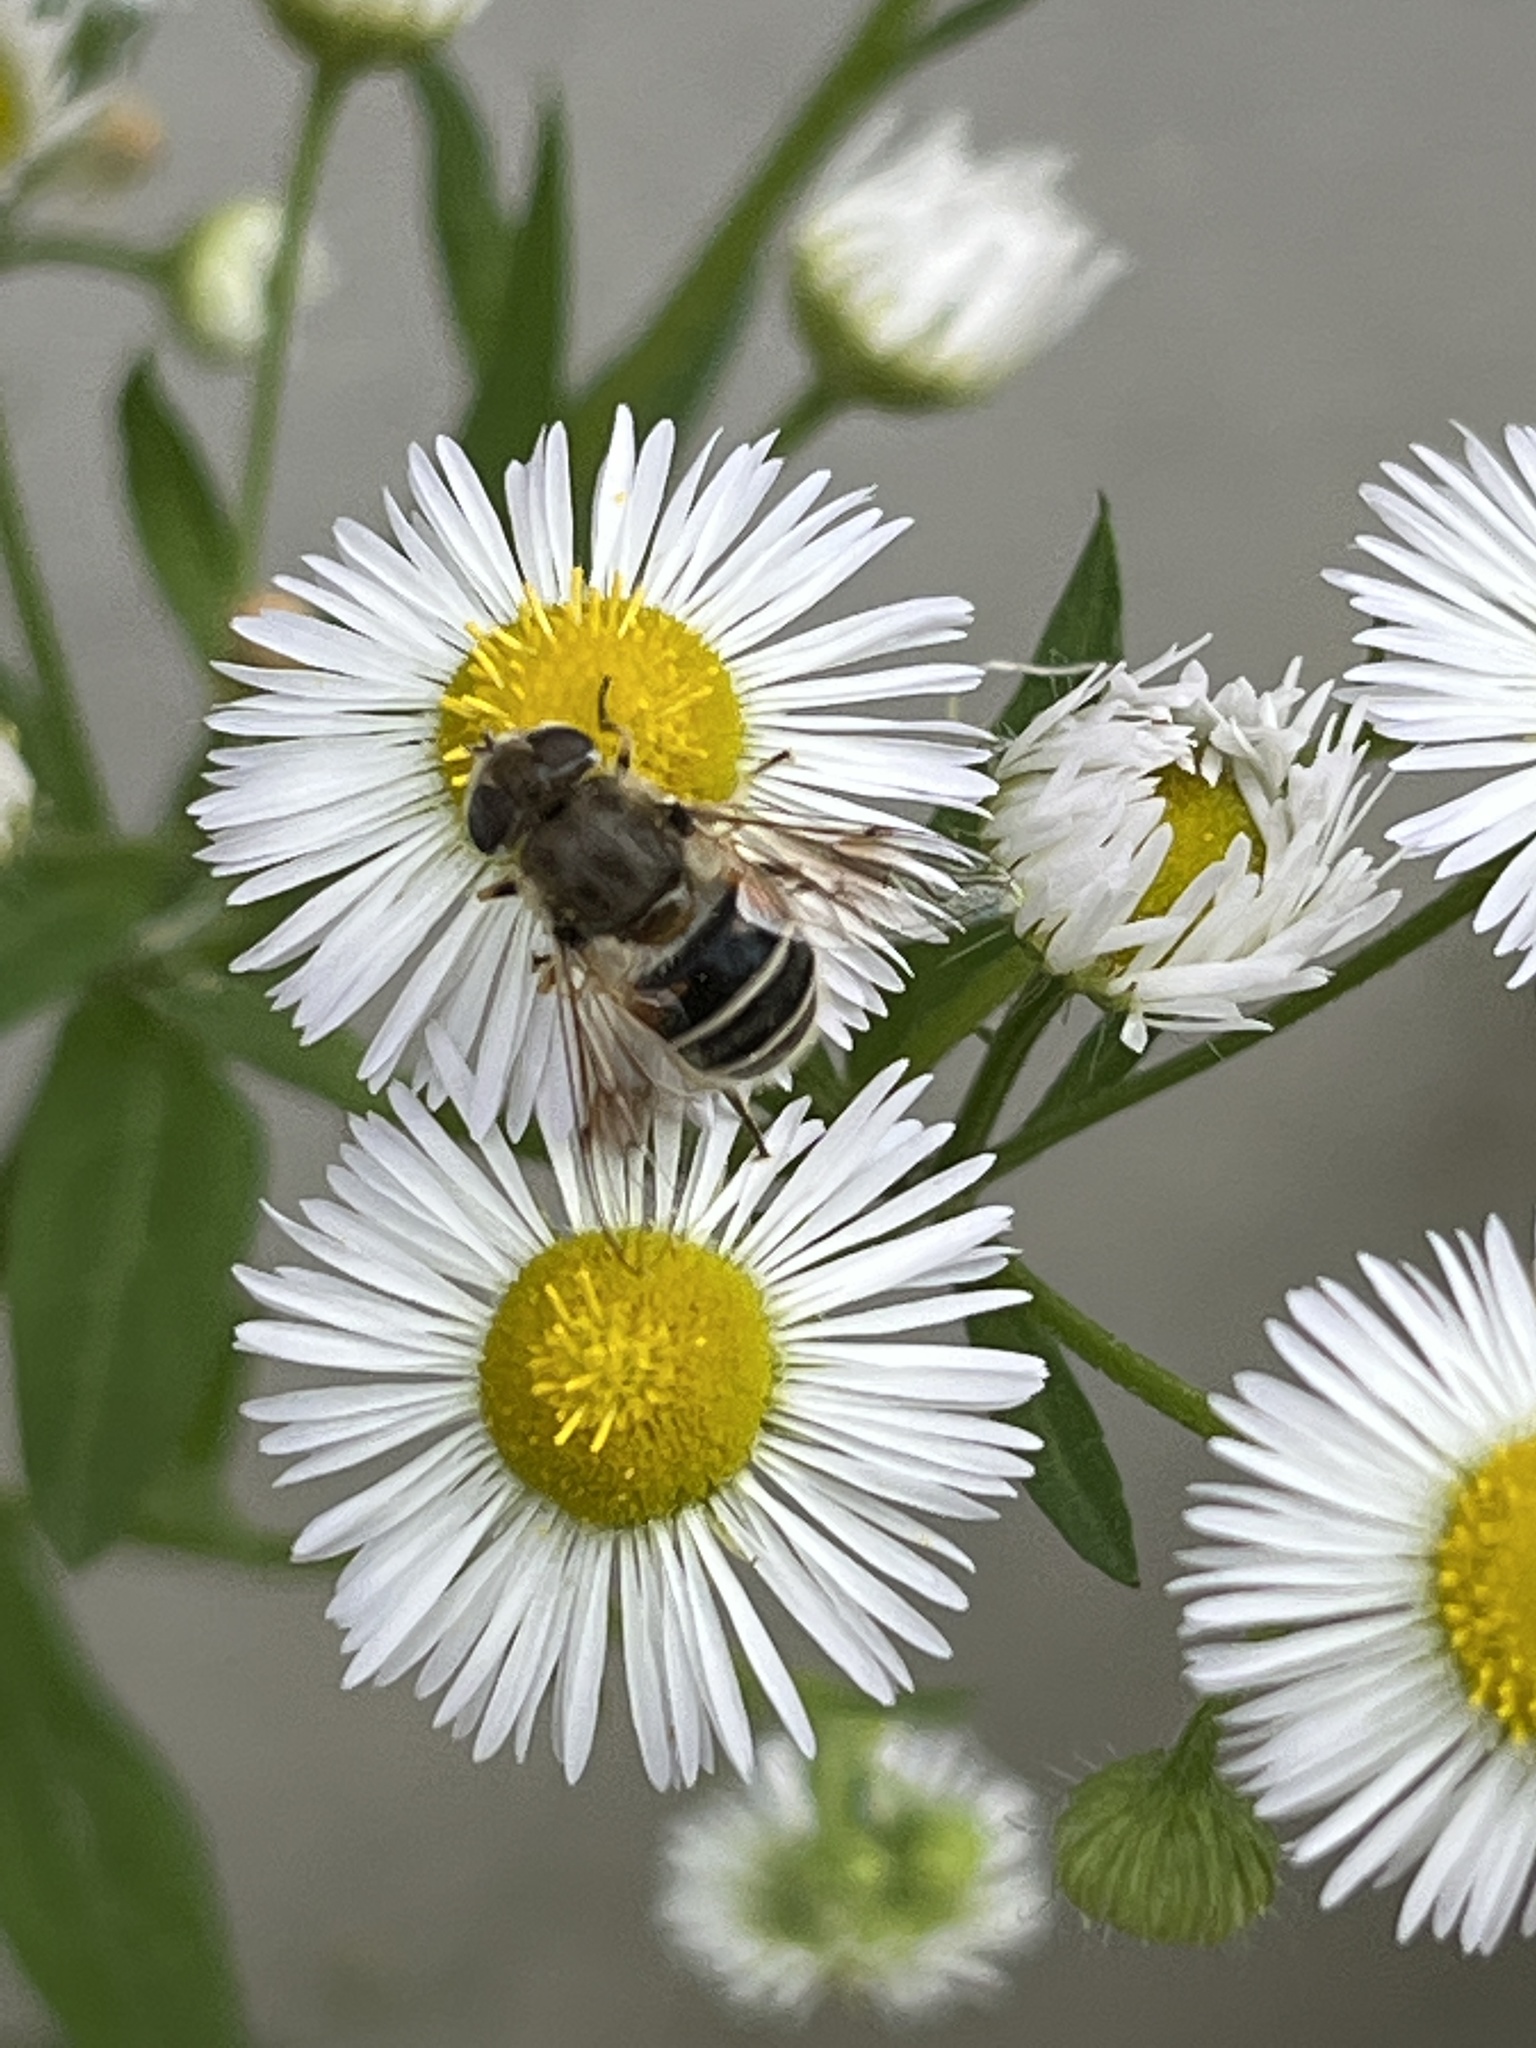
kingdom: Animalia
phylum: Arthropoda
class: Insecta
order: Diptera
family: Syrphidae
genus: Eristalis
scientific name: Eristalis arbustorum
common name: Hover fly
